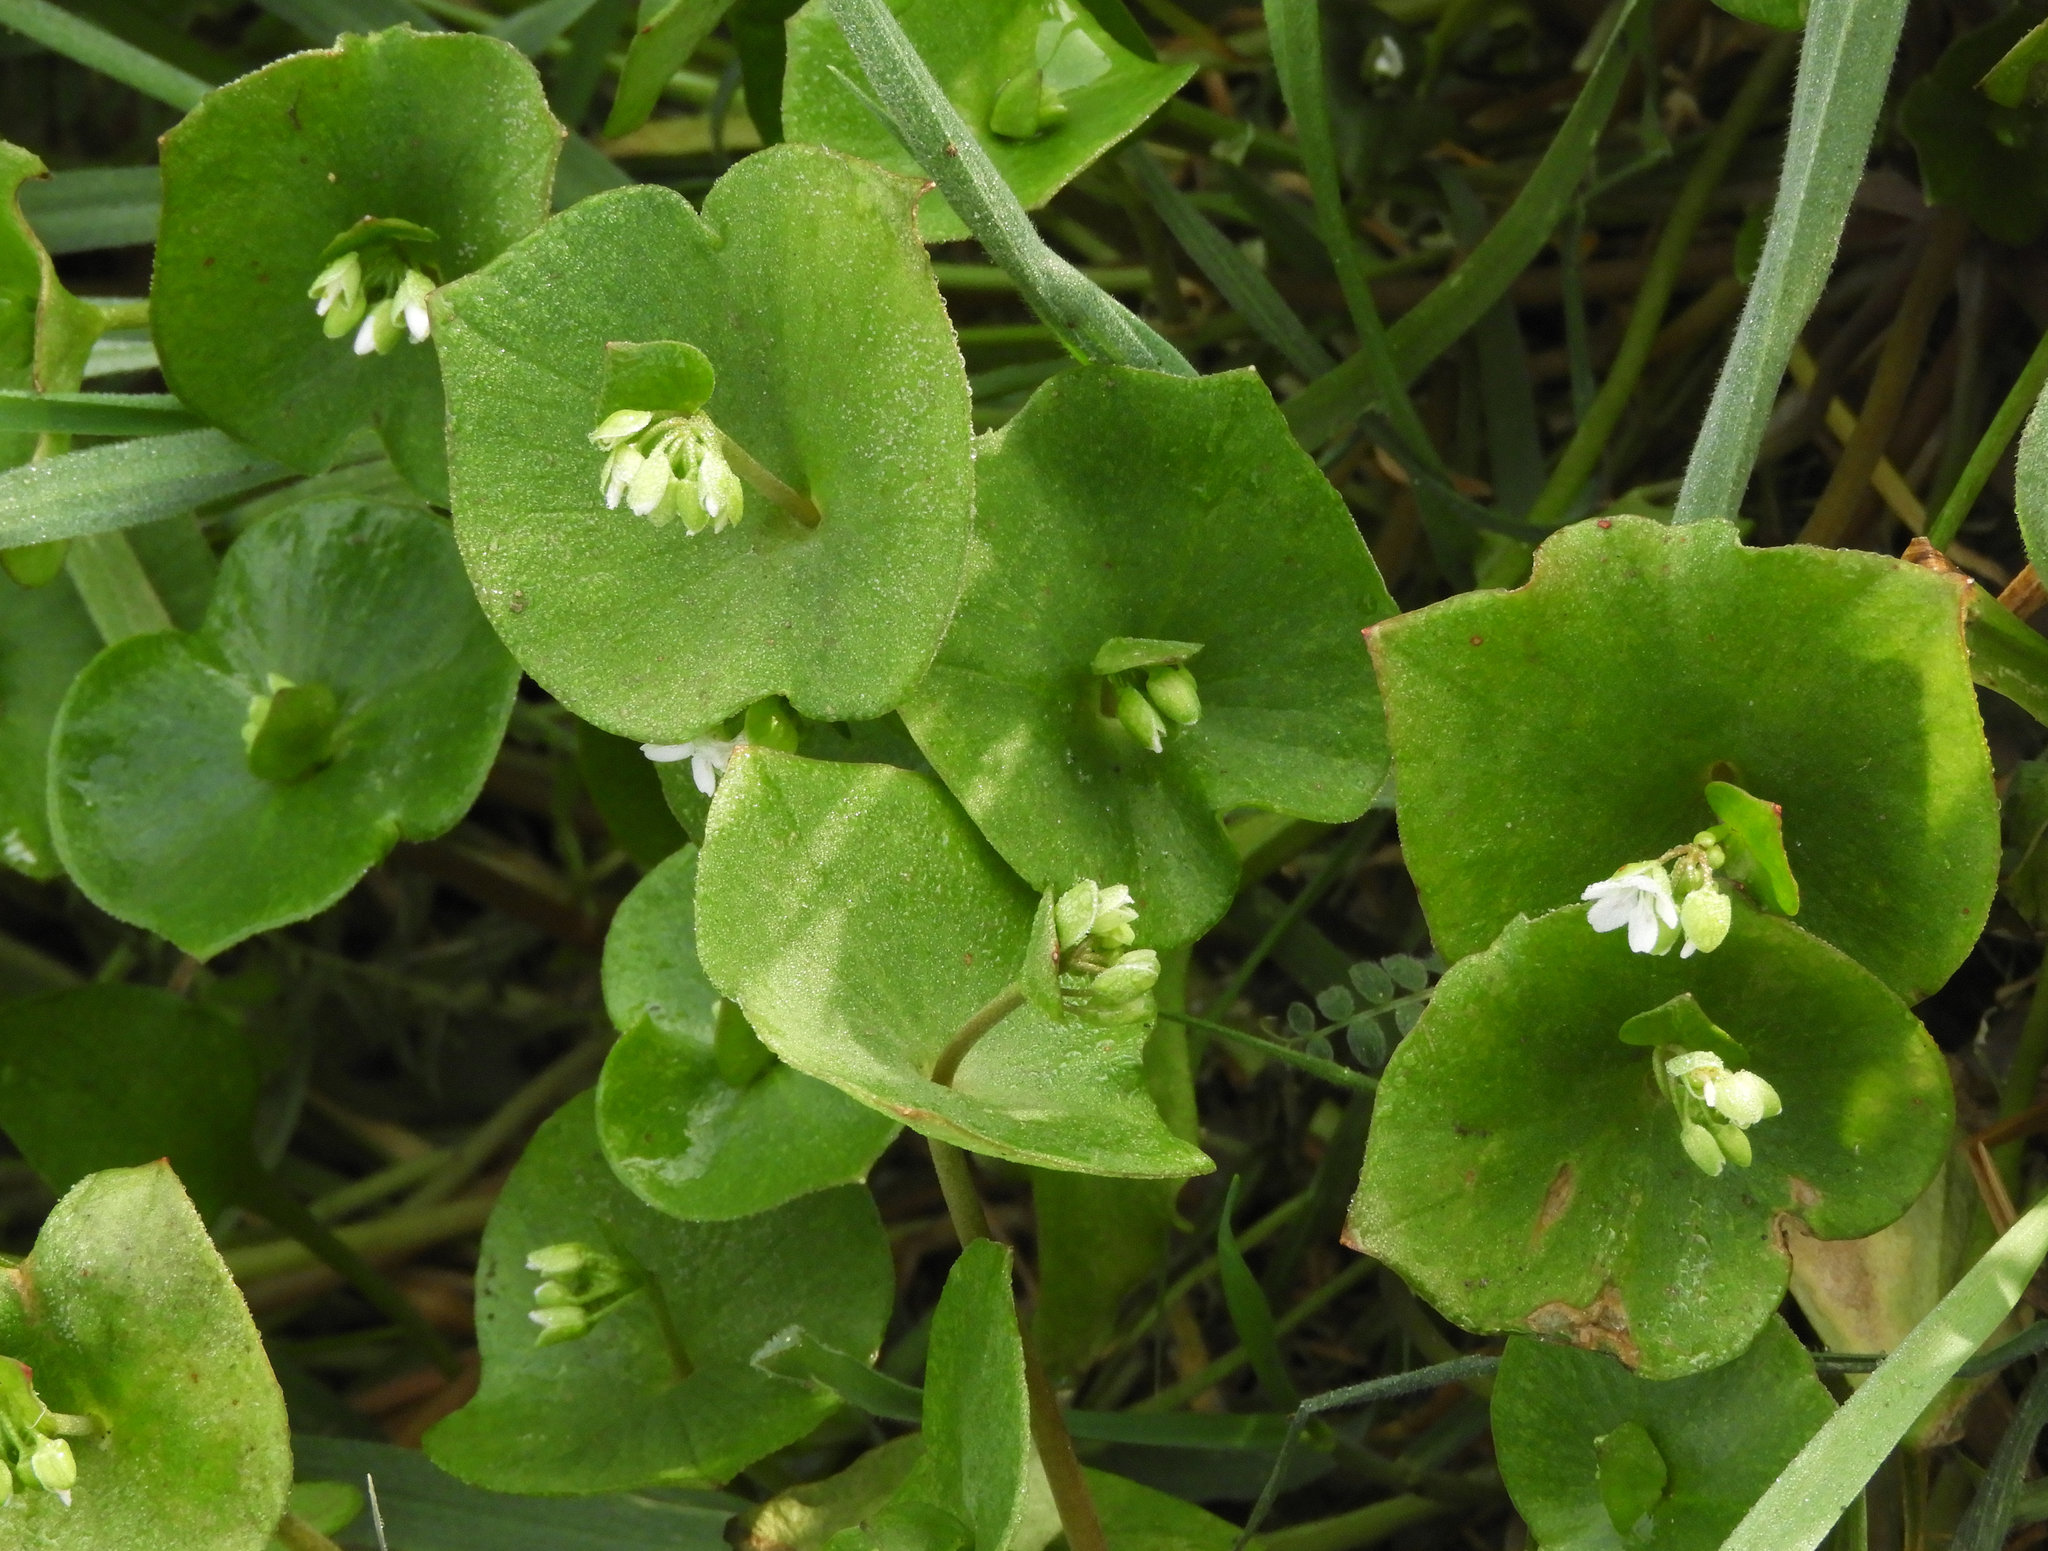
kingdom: Plantae
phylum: Tracheophyta
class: Magnoliopsida
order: Caryophyllales
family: Montiaceae
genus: Claytonia
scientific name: Claytonia perfoliata
